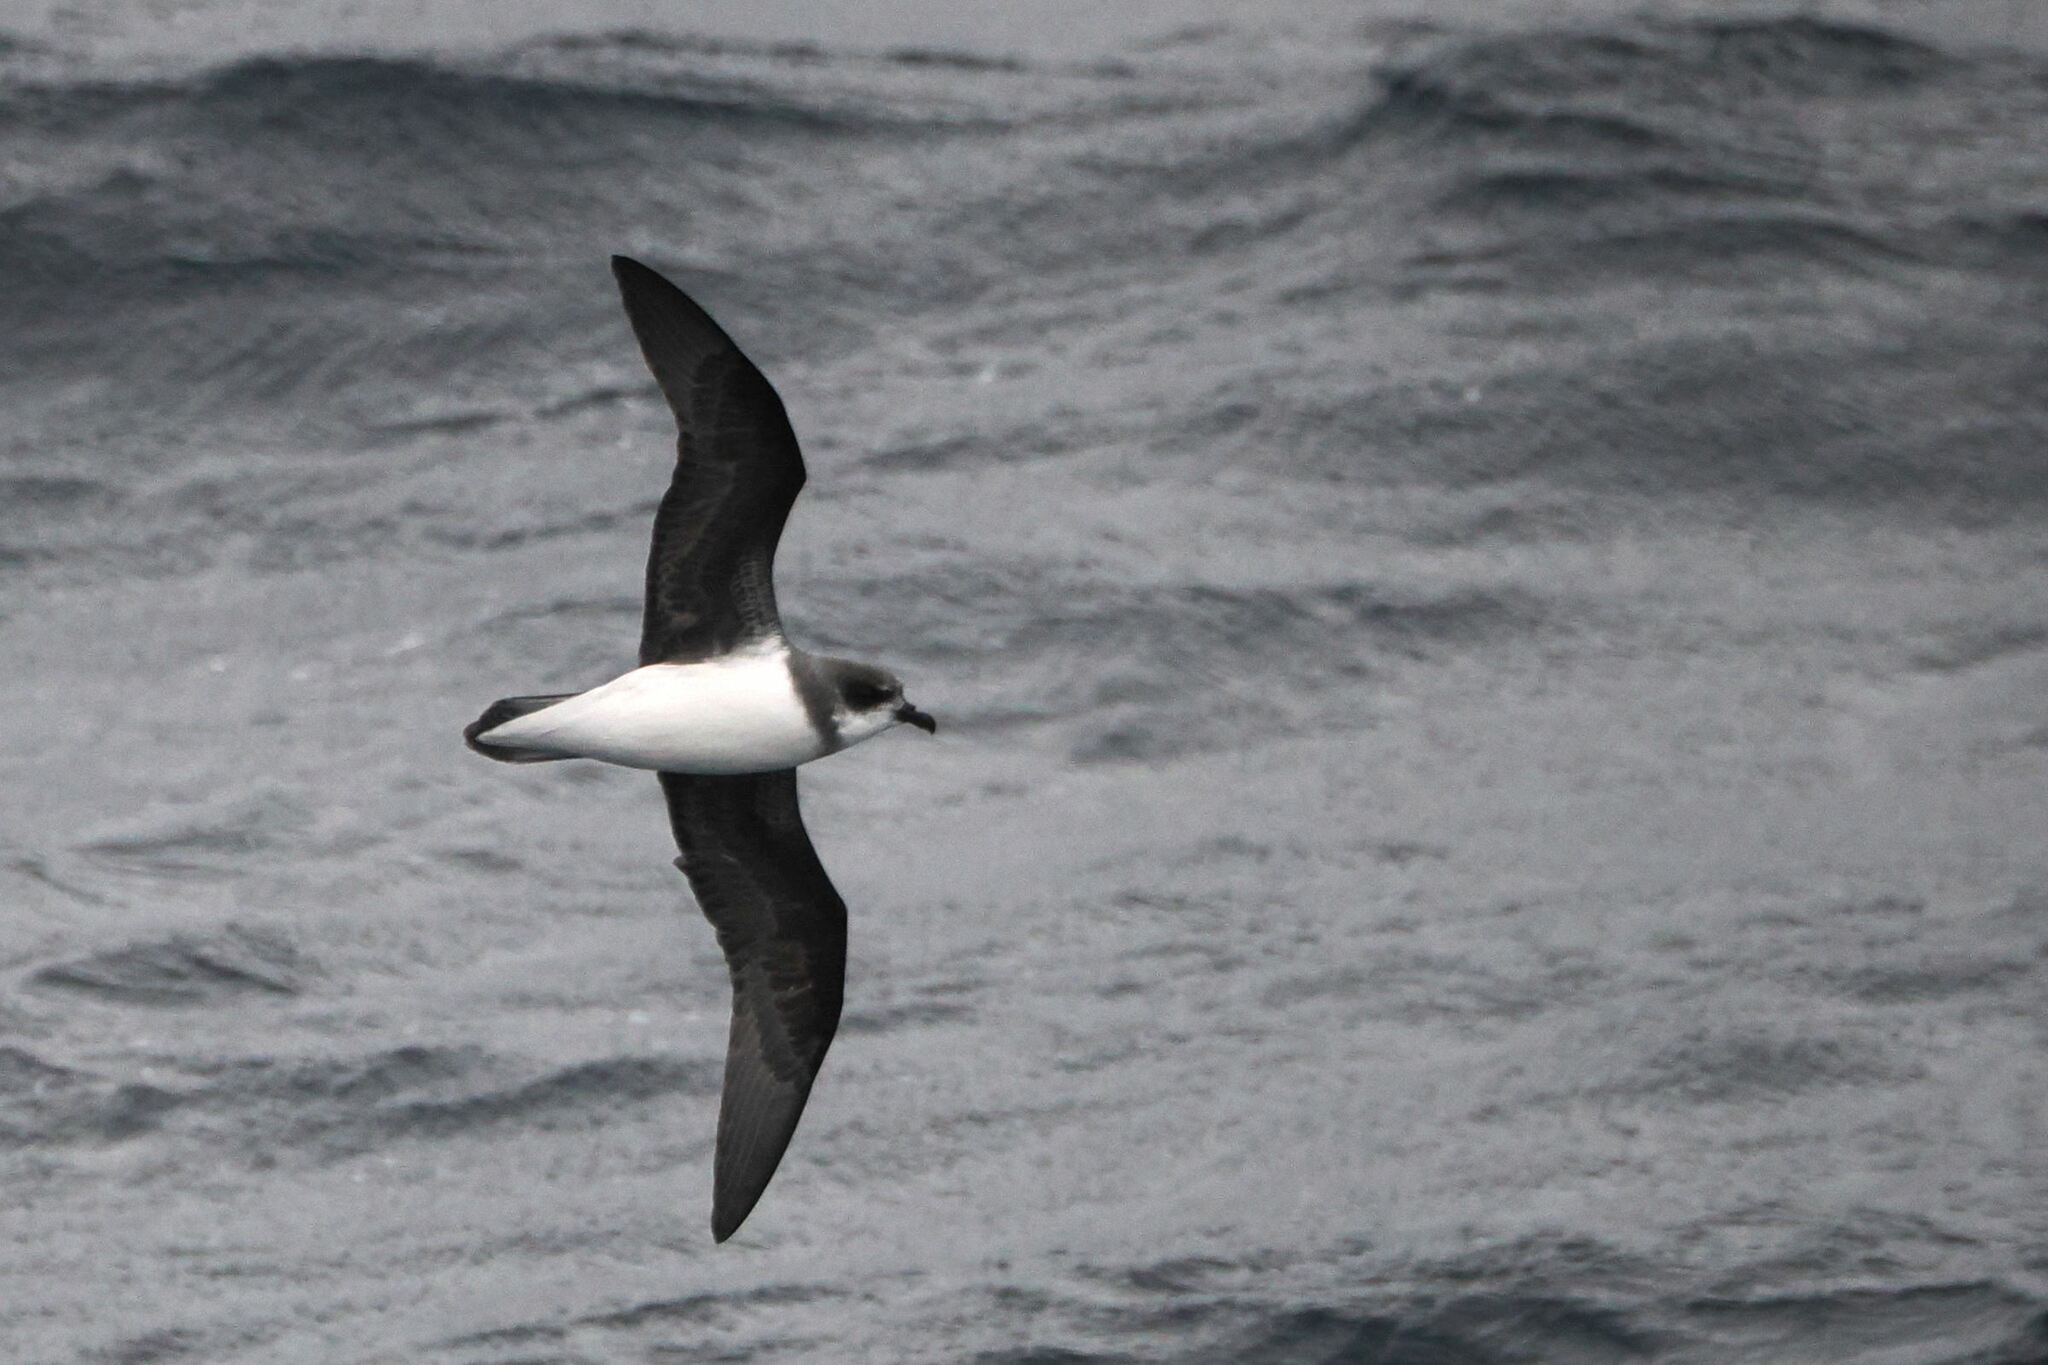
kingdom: Animalia
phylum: Chordata
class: Aves
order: Procellariiformes
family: Procellariidae
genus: Pterodroma
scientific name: Pterodroma mollis
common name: Soft-plumaged petrel
